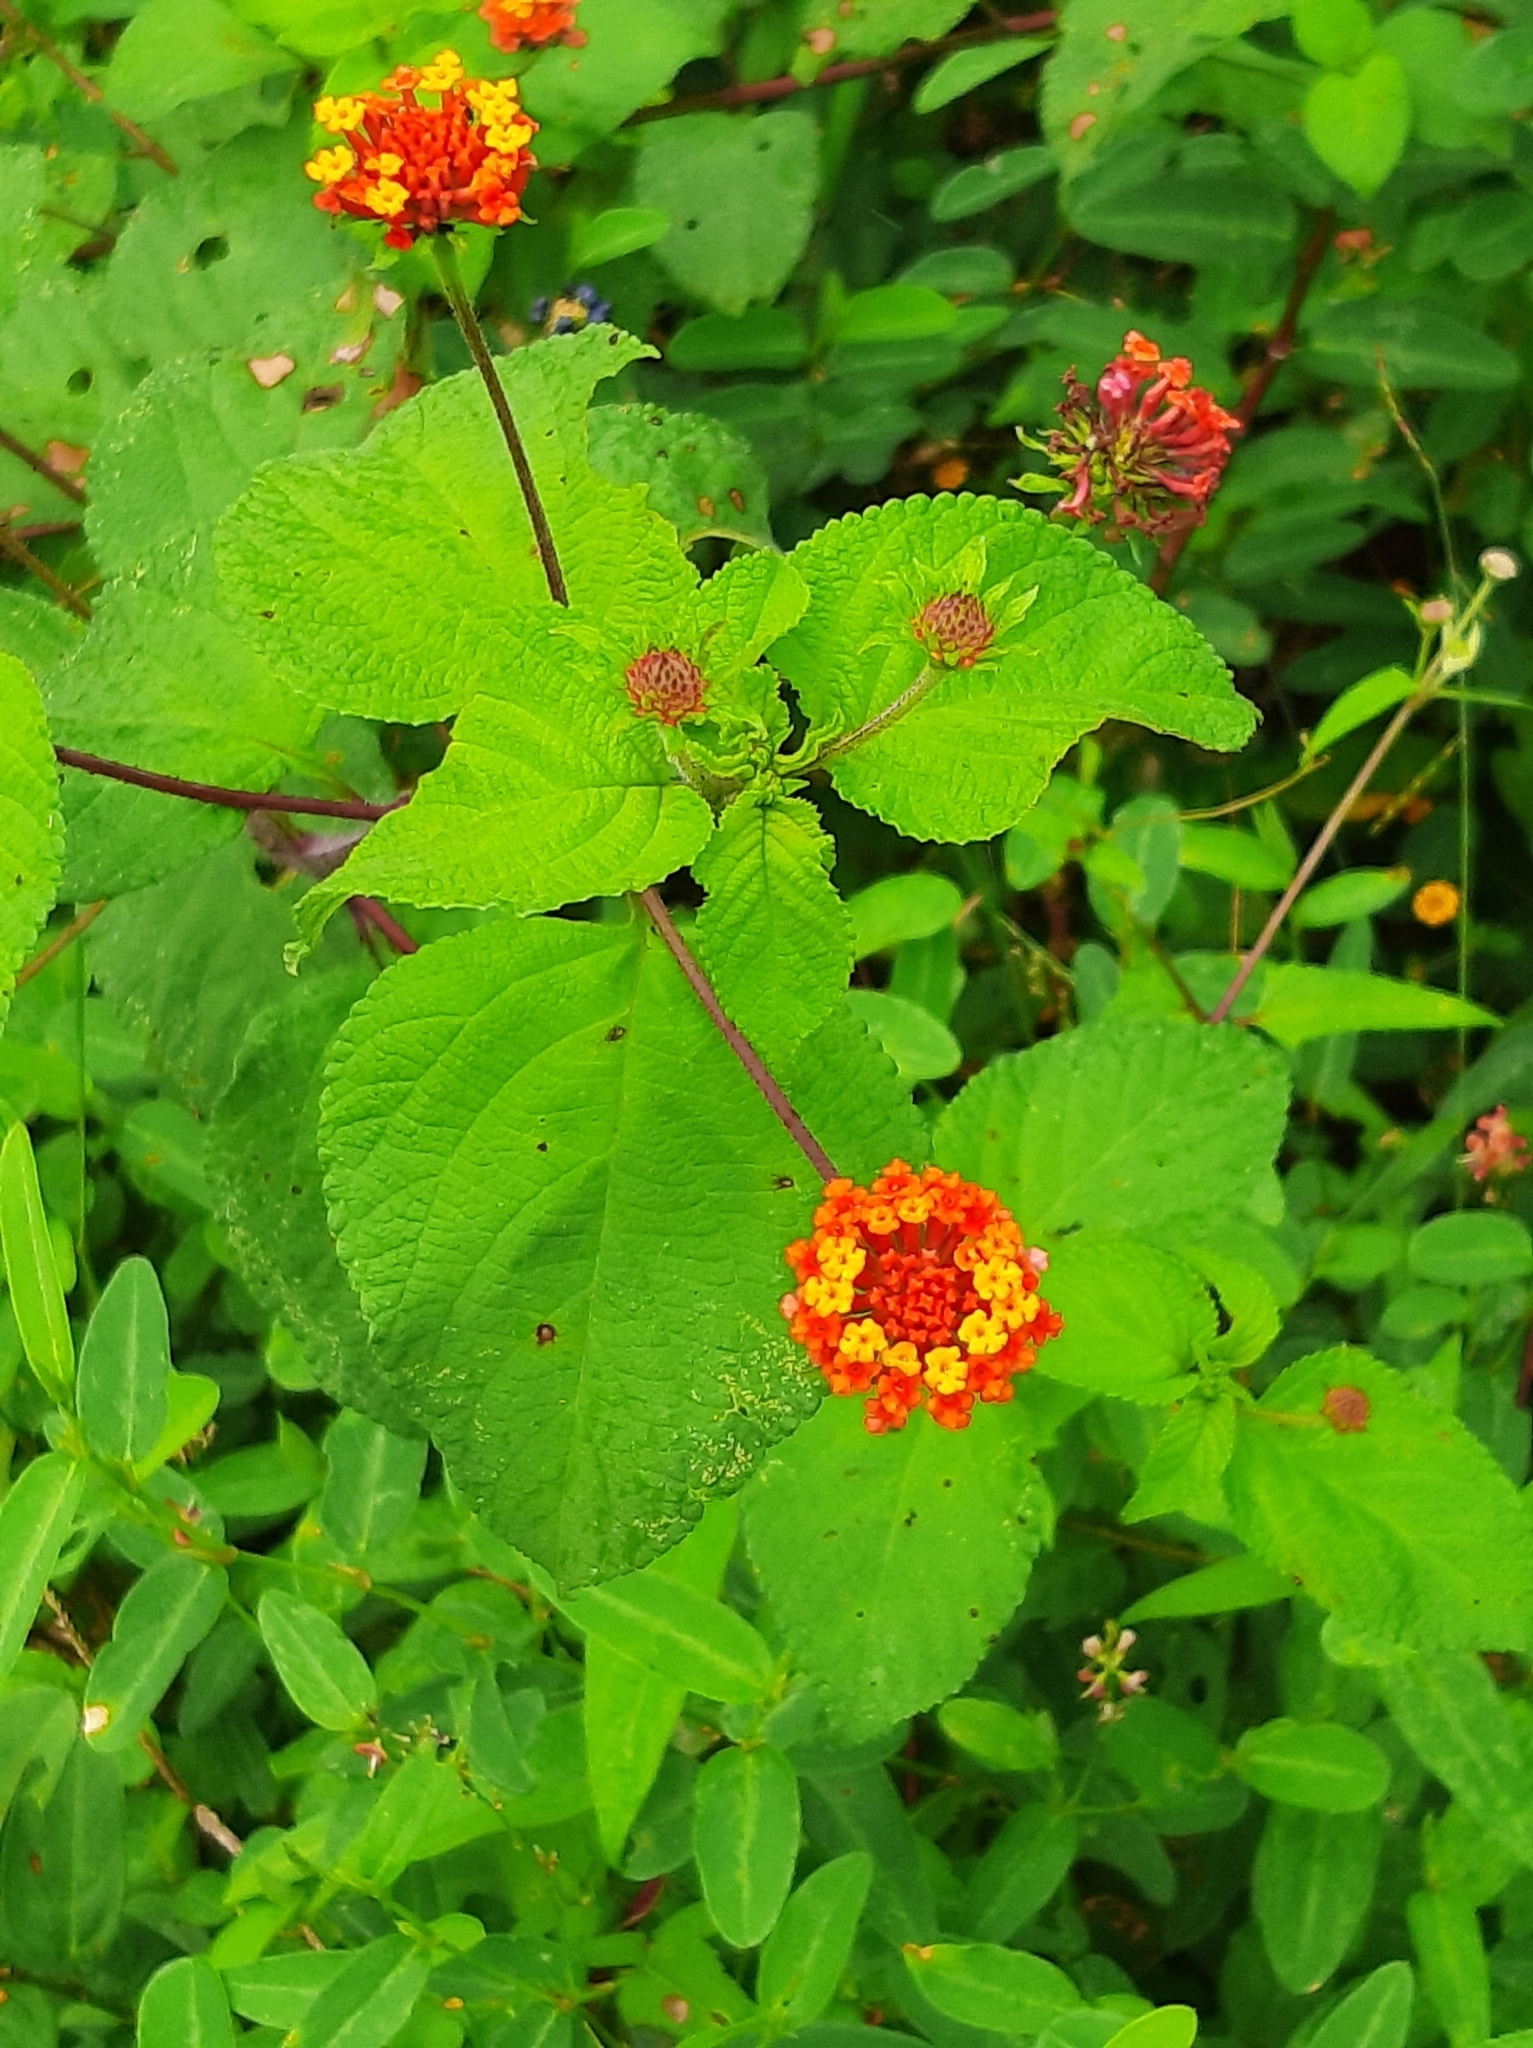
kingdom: Plantae
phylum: Tracheophyta
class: Magnoliopsida
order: Lamiales
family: Verbenaceae
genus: Lantana
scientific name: Lantana camara
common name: Lantana
